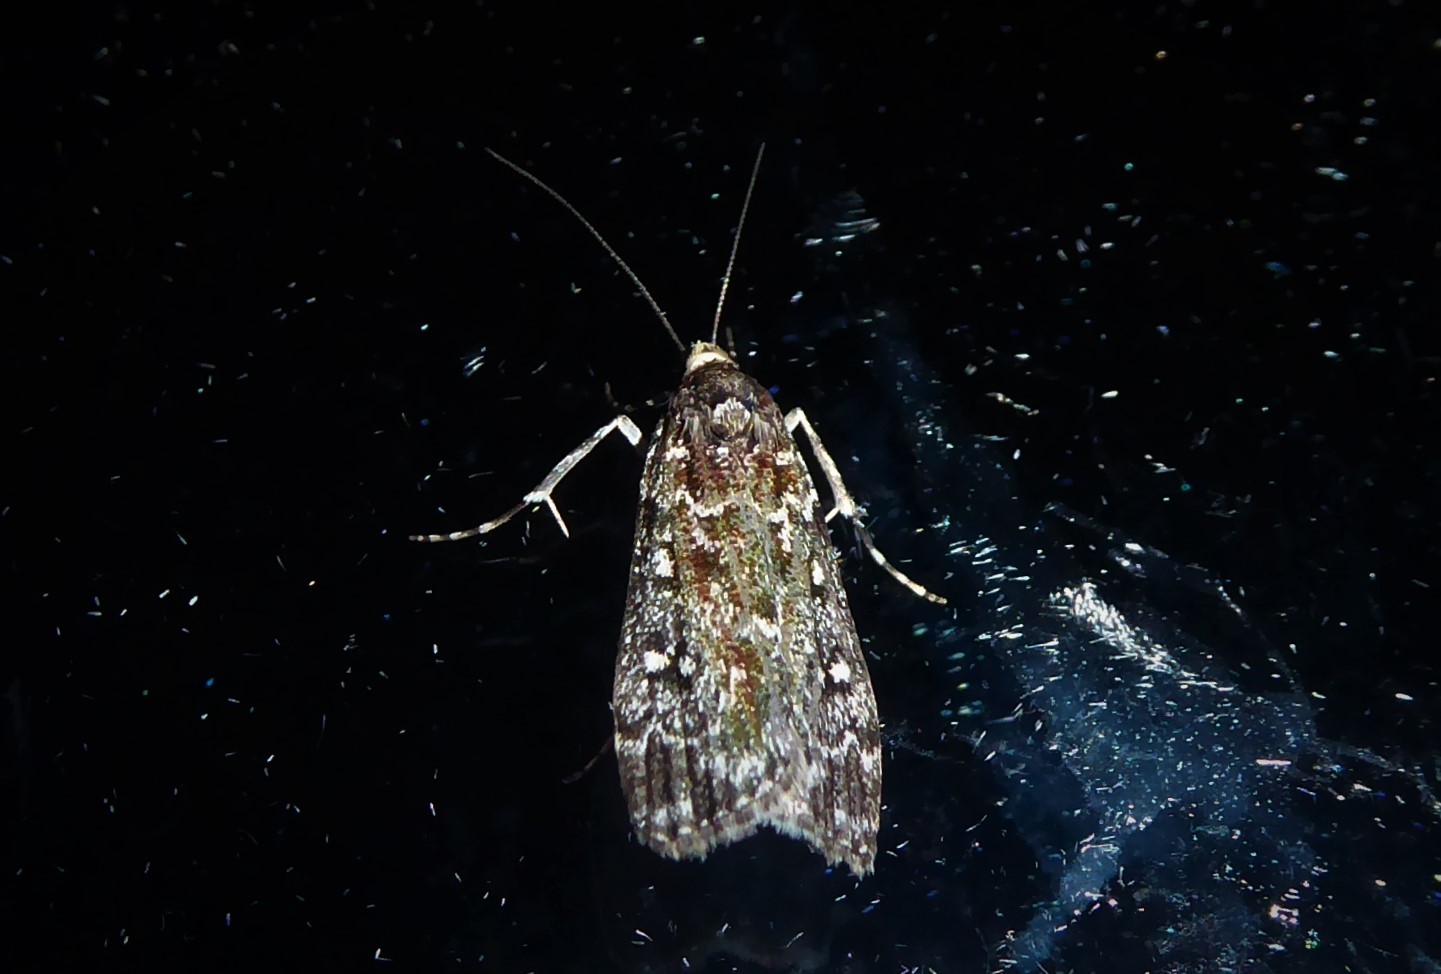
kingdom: Animalia
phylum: Arthropoda
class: Insecta
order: Lepidoptera
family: Crambidae
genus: Eudonia
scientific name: Eudonia philerga
